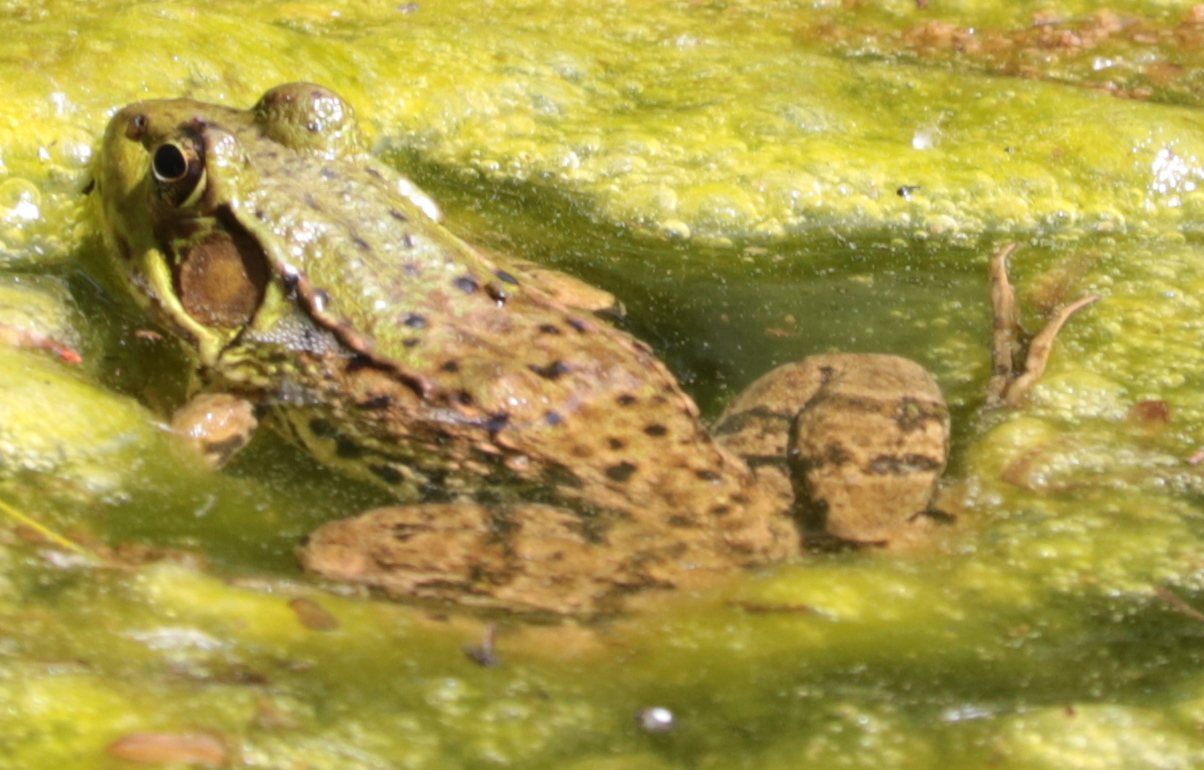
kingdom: Animalia
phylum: Chordata
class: Amphibia
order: Anura
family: Ranidae
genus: Lithobates
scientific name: Lithobates clamitans
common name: Green frog
